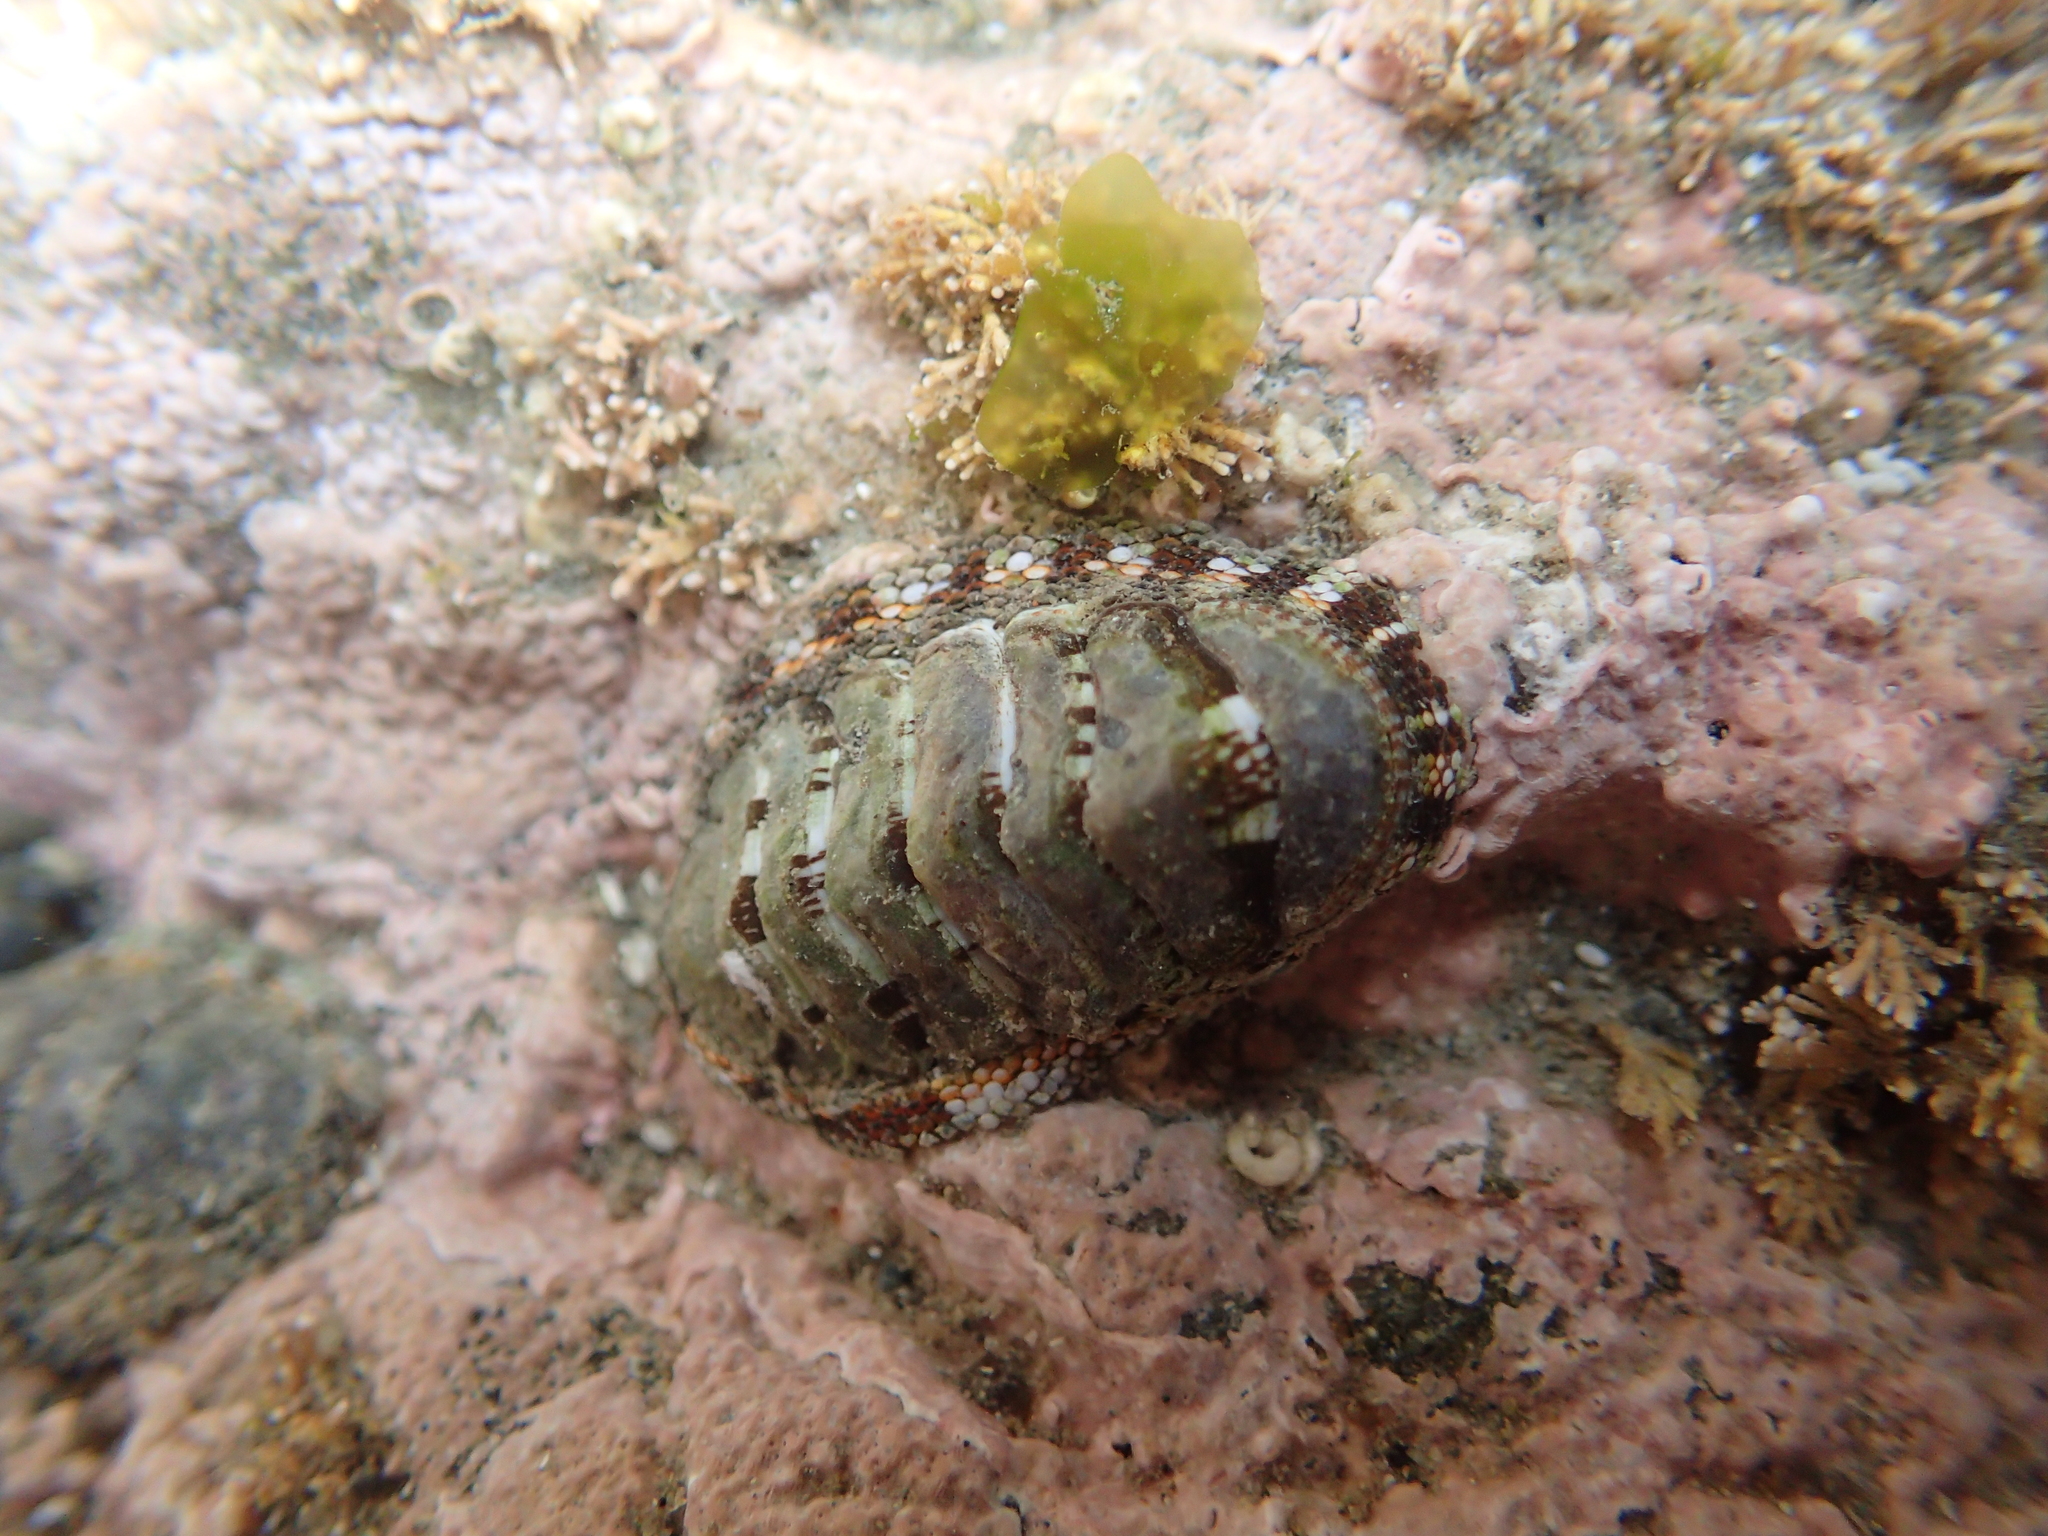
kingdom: Animalia
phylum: Mollusca
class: Polyplacophora
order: Chitonida
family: Chitonidae
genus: Sypharochiton
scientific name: Sypharochiton sinclairi
